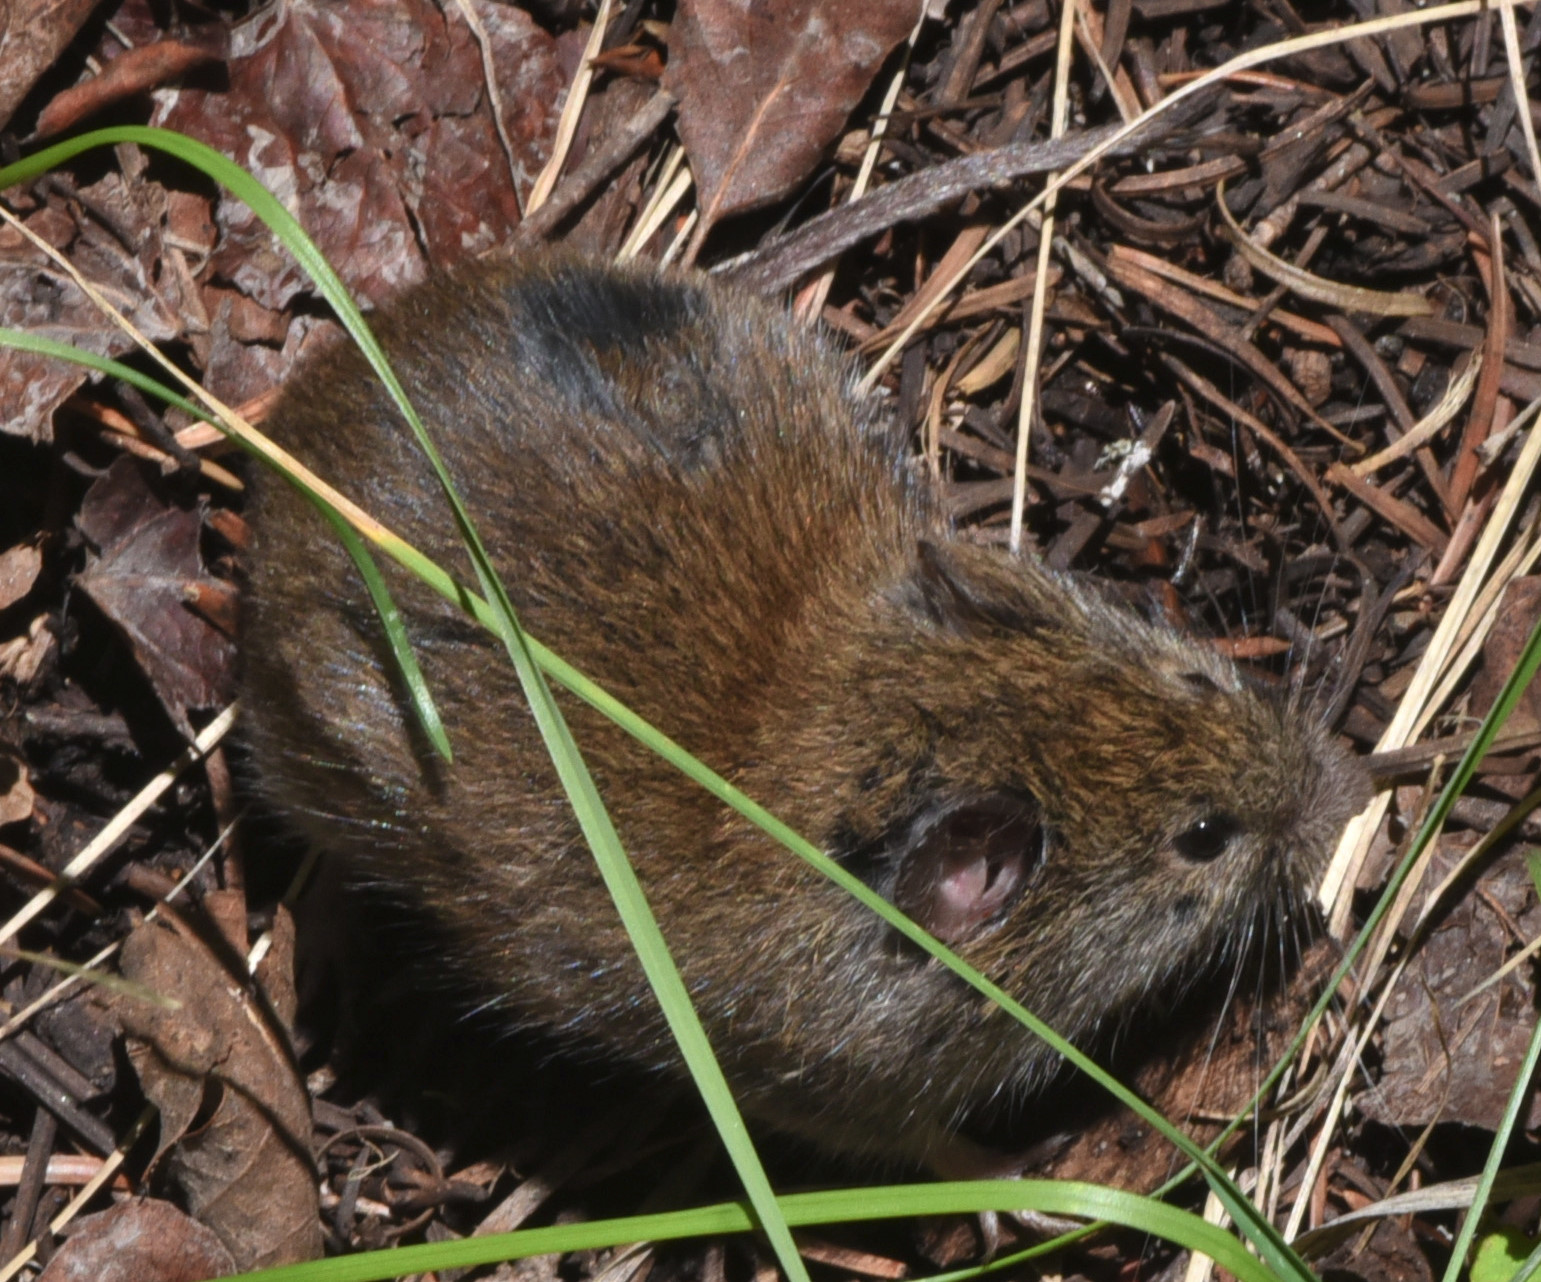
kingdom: Animalia
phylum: Chordata
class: Mammalia
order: Rodentia
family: Cricetidae
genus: Microtus
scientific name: Microtus pennsylvanicus
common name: Meadow vole
